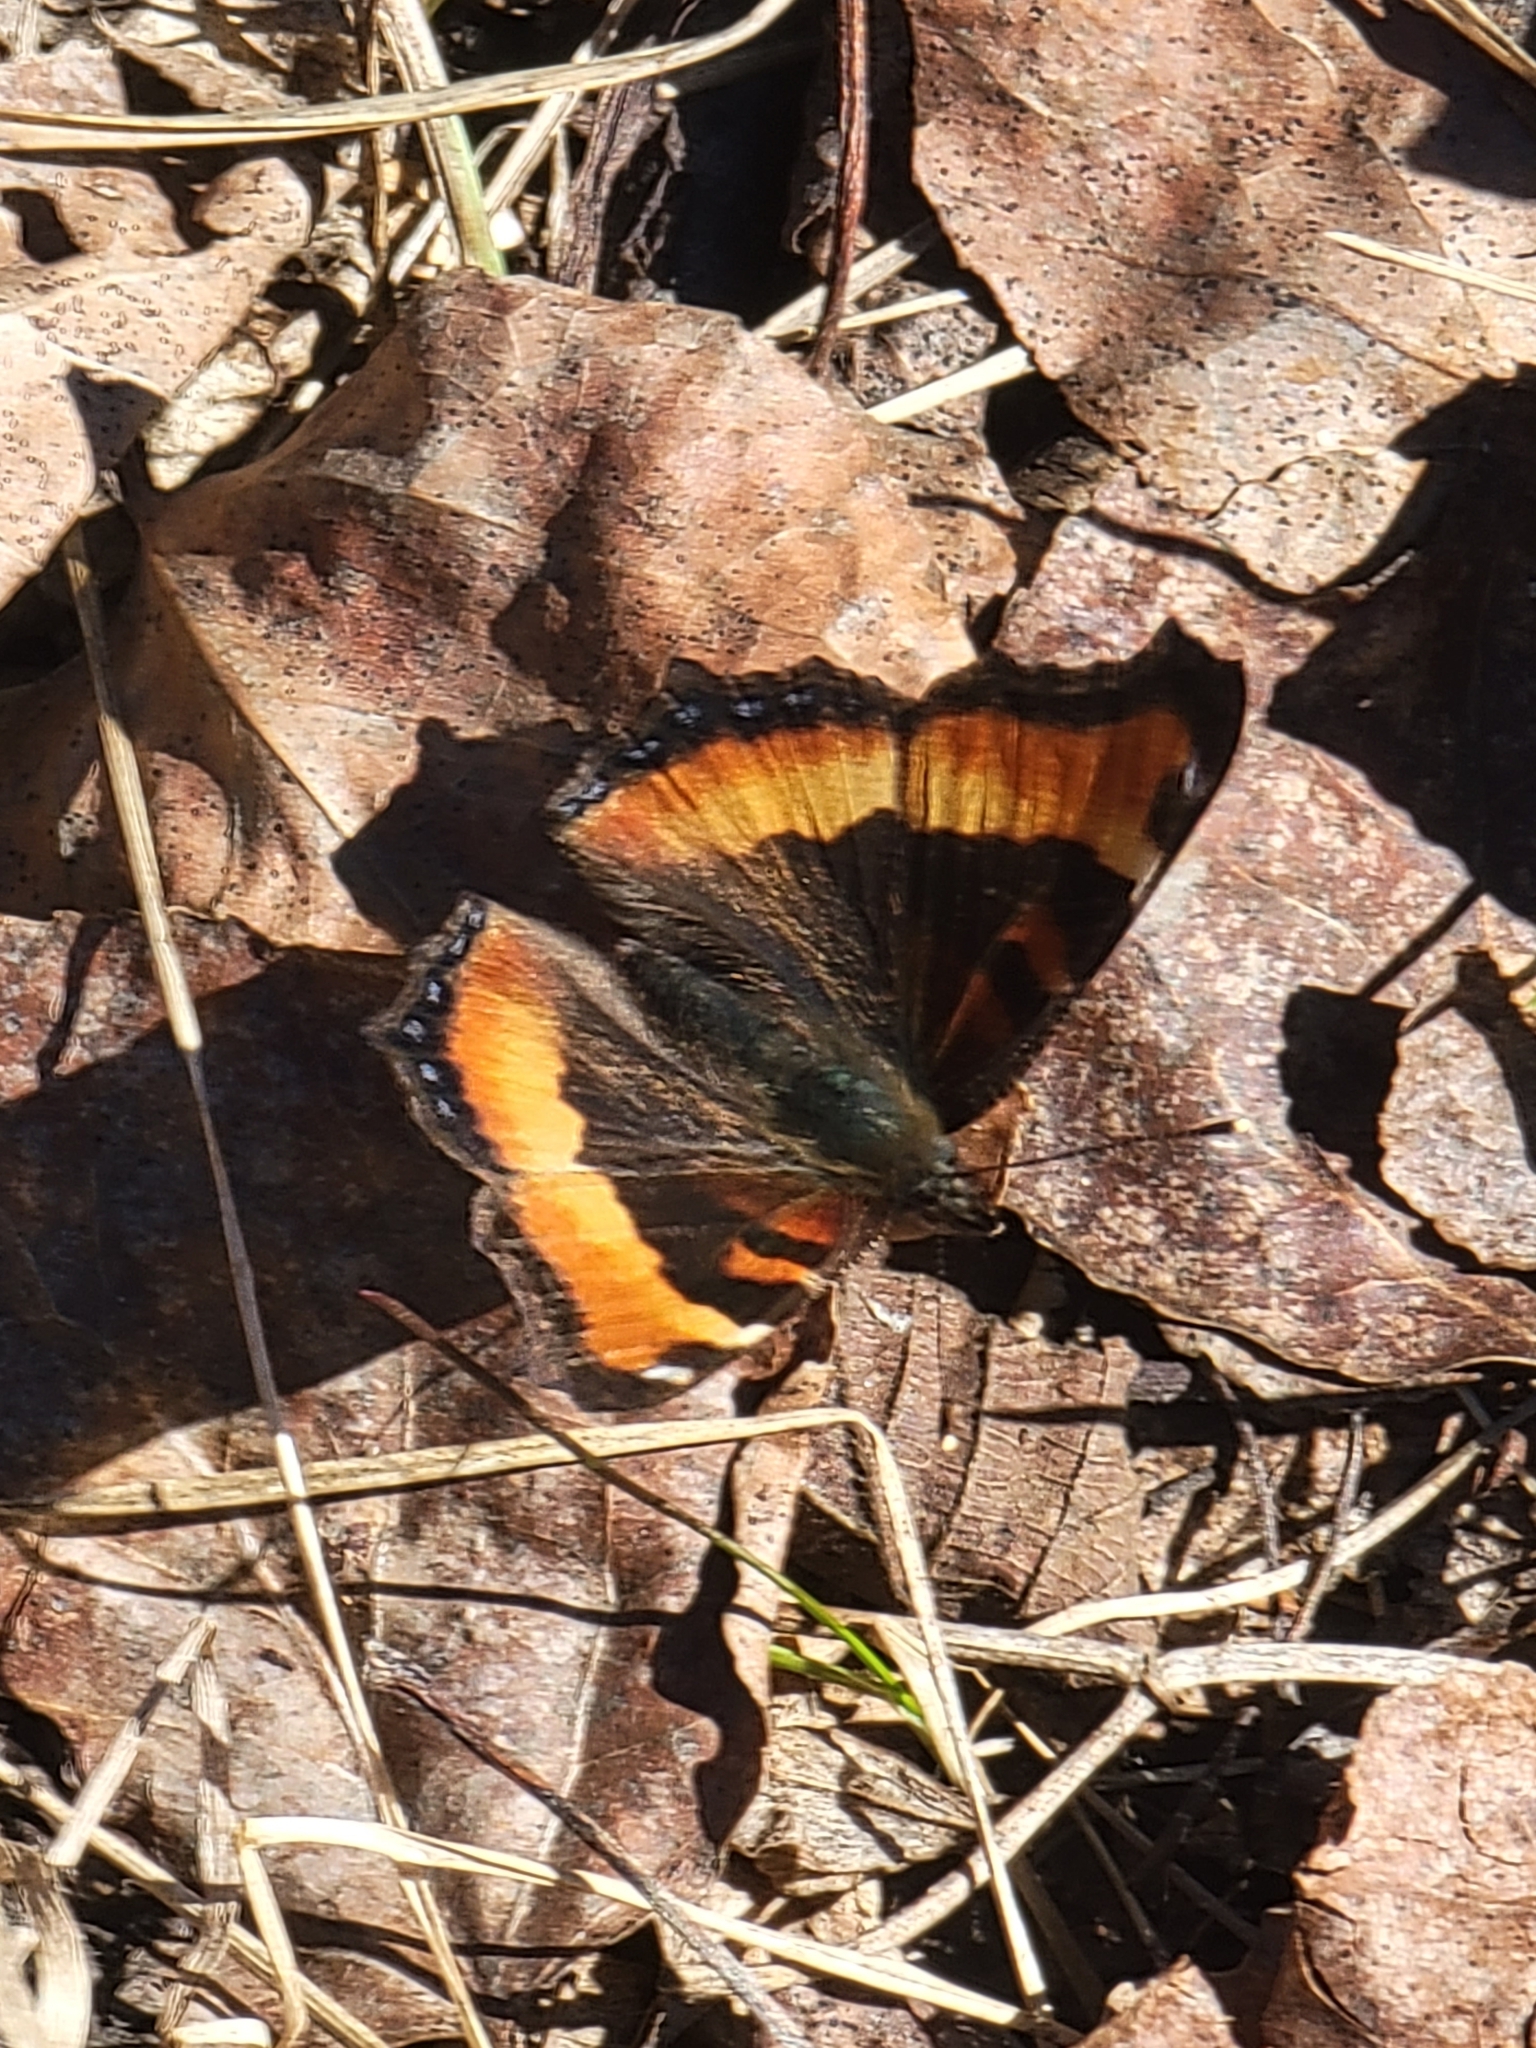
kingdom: Animalia
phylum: Arthropoda
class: Insecta
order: Lepidoptera
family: Nymphalidae
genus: Aglais
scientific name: Aglais milberti
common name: Milbert's tortoiseshell
